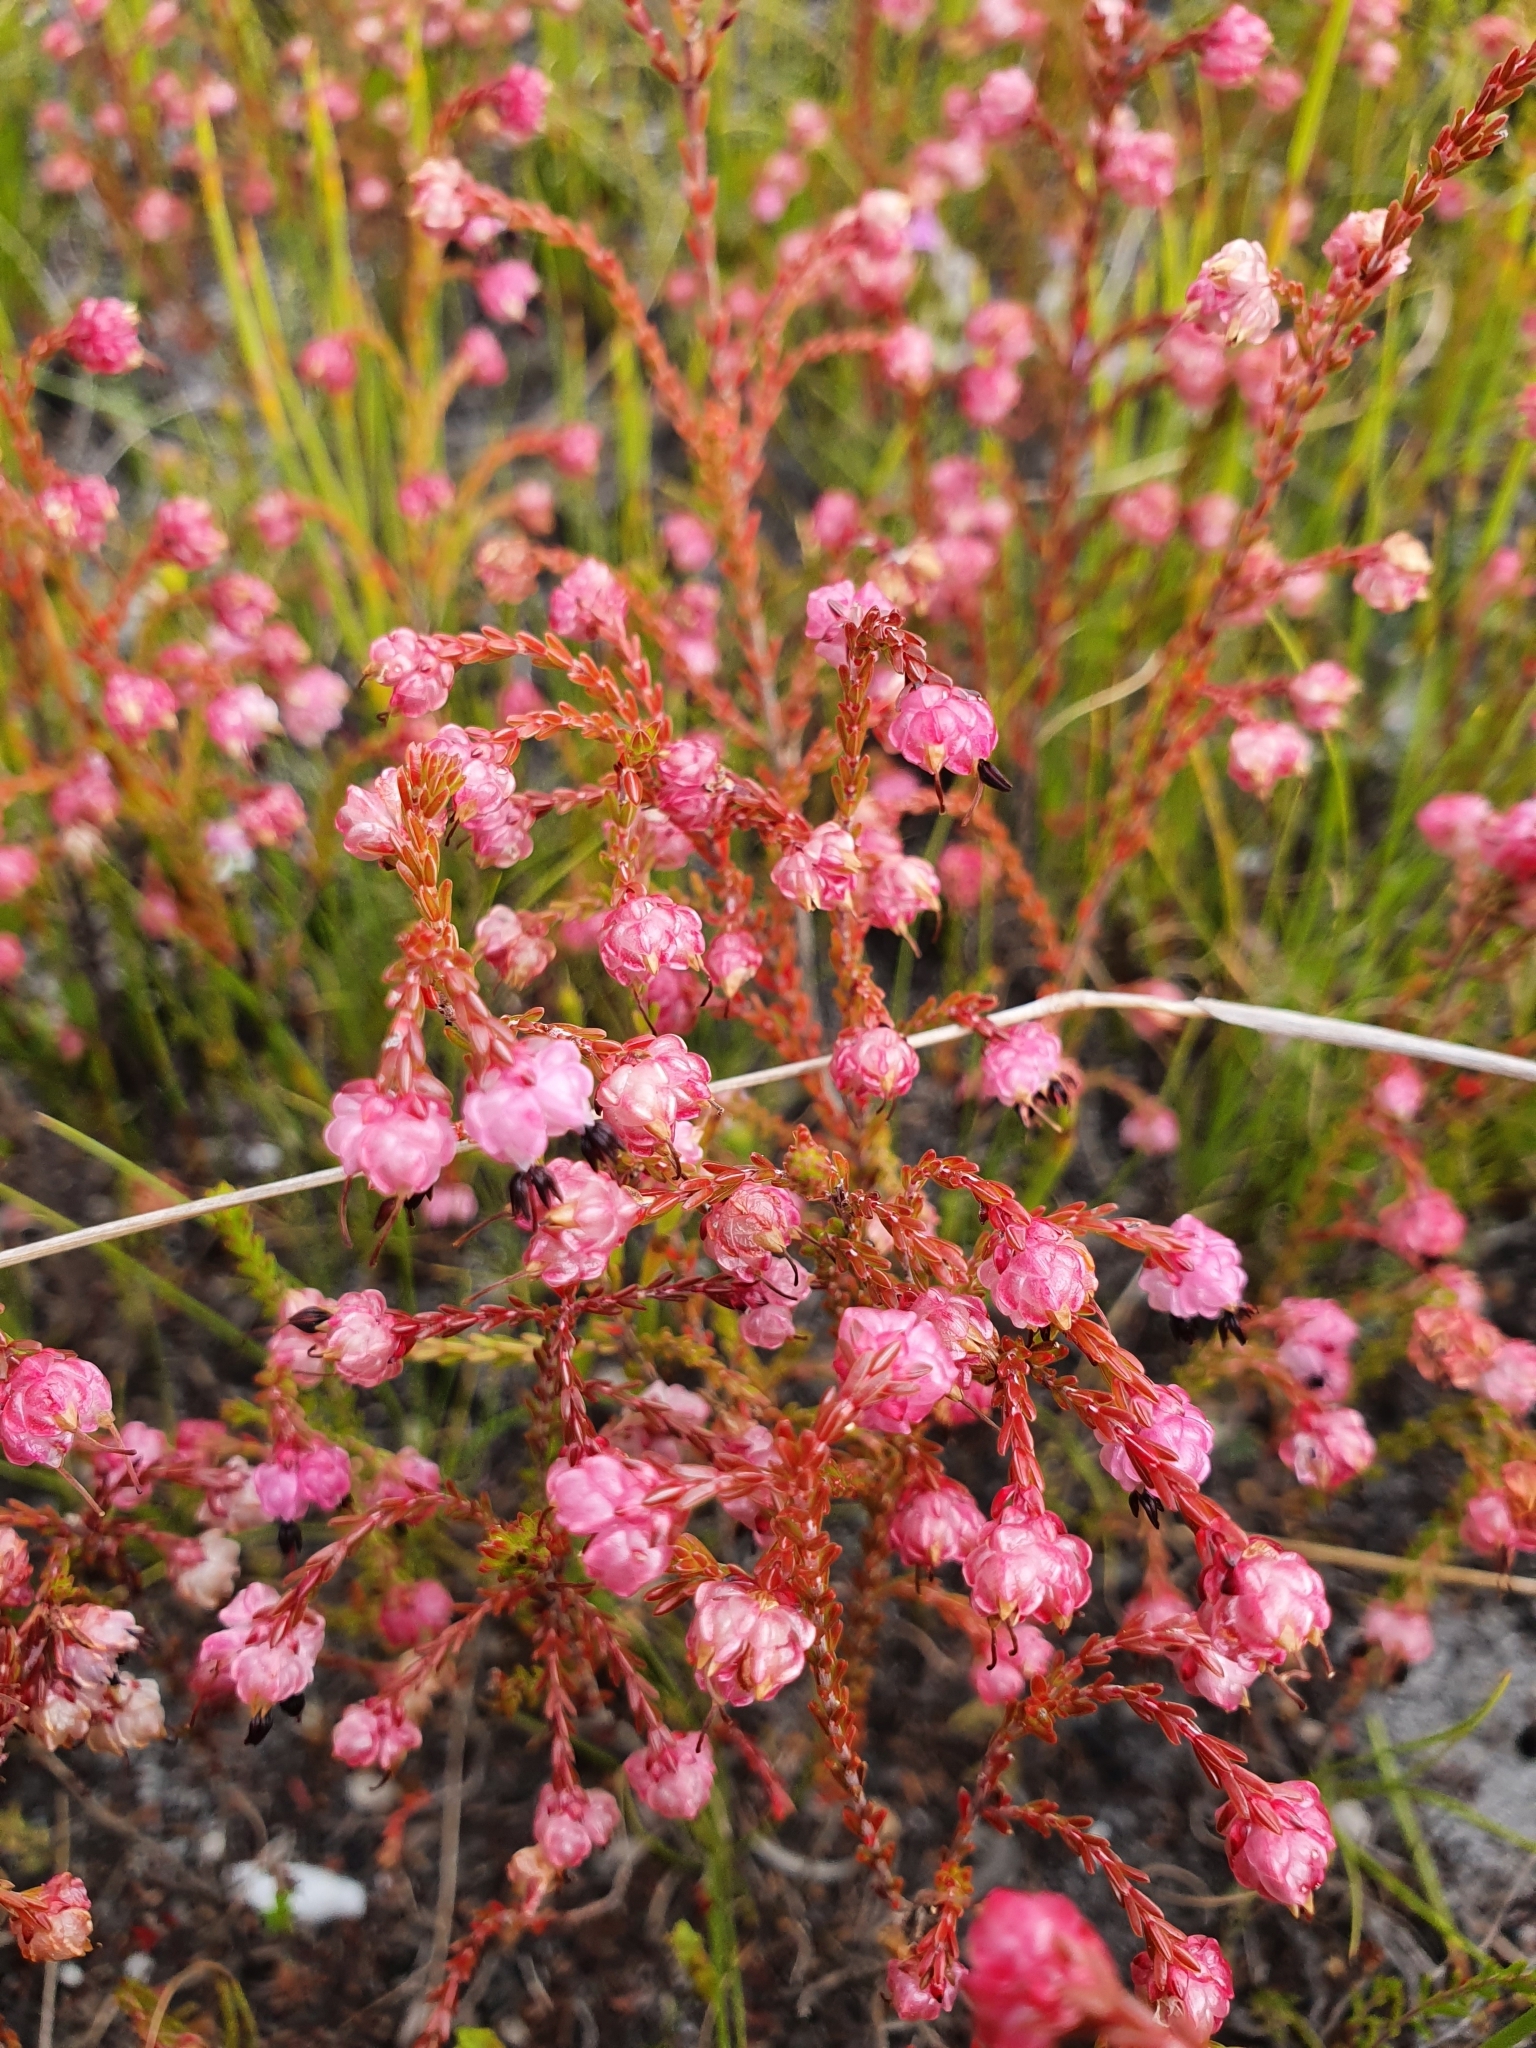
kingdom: Plantae
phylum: Tracheophyta
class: Magnoliopsida
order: Ericales
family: Ericaceae
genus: Erica
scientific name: Erica spumosa
